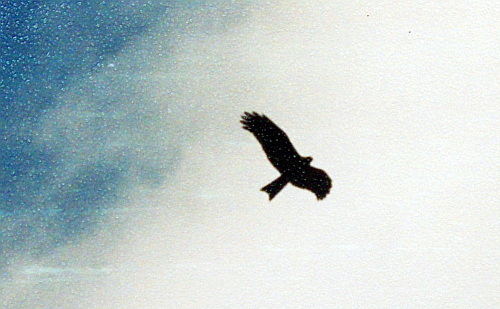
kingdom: Animalia
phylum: Chordata
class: Aves
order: Accipitriformes
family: Accipitridae
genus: Milvus
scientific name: Milvus migrans
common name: Black kite
